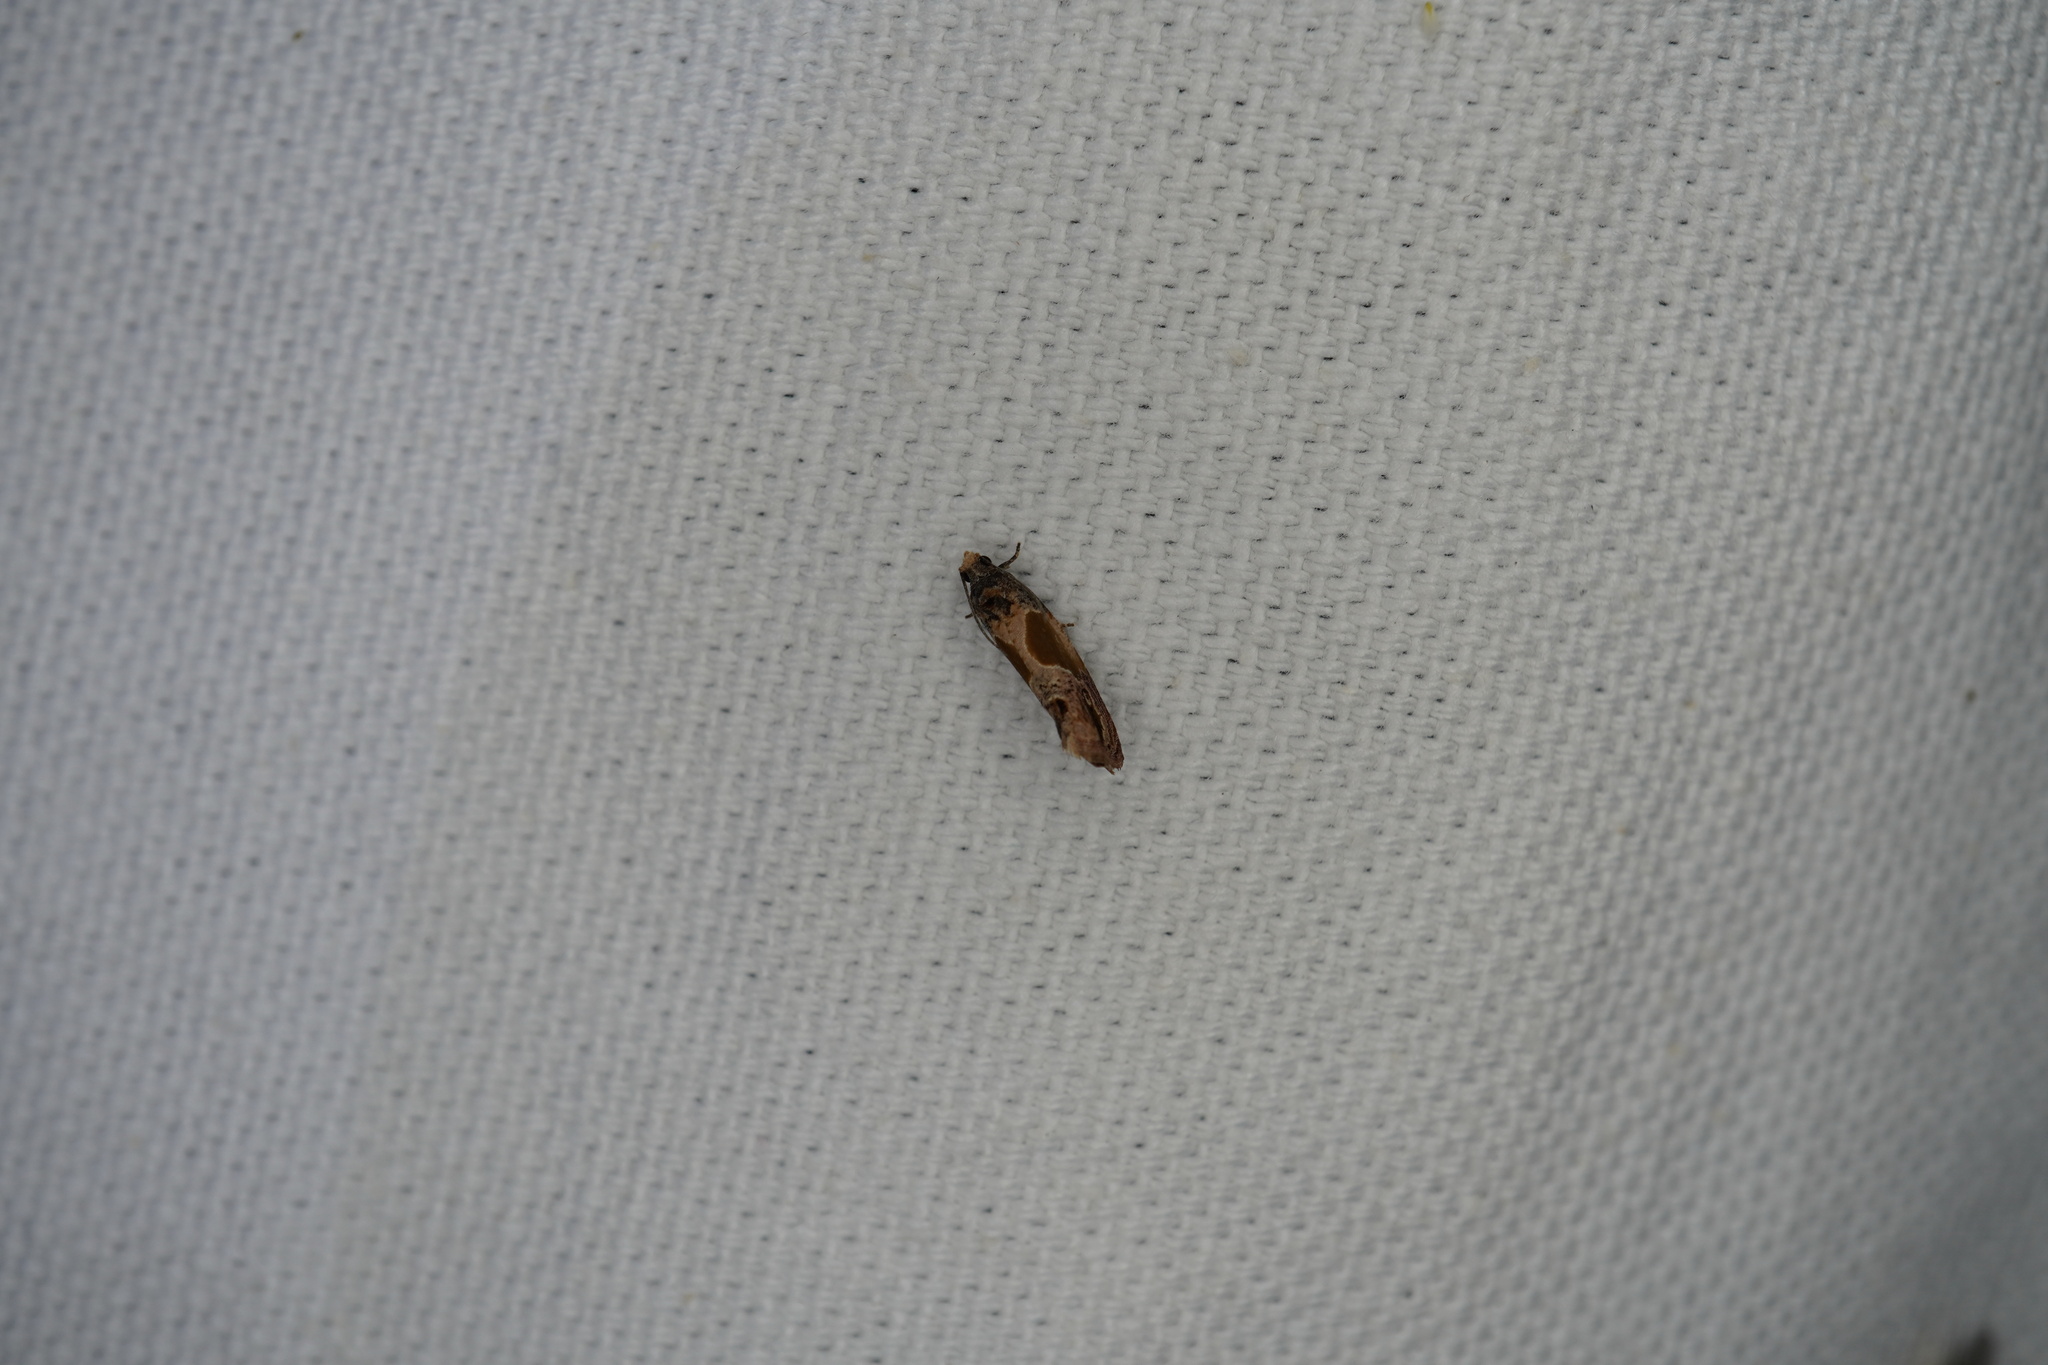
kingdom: Animalia
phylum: Arthropoda
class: Insecta
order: Lepidoptera
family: Tortricidae
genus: Eumarozia
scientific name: Eumarozia malachitana
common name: Sculptured moth
